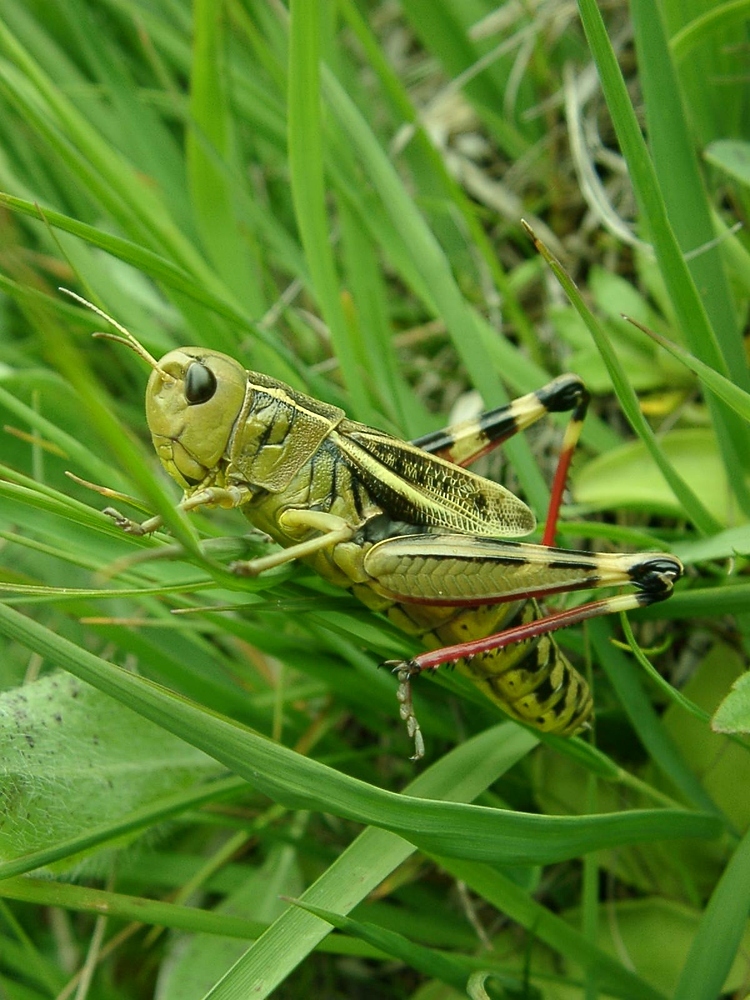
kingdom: Animalia
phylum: Arthropoda
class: Insecta
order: Orthoptera
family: Acrididae
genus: Arcyptera
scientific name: Arcyptera fusca
